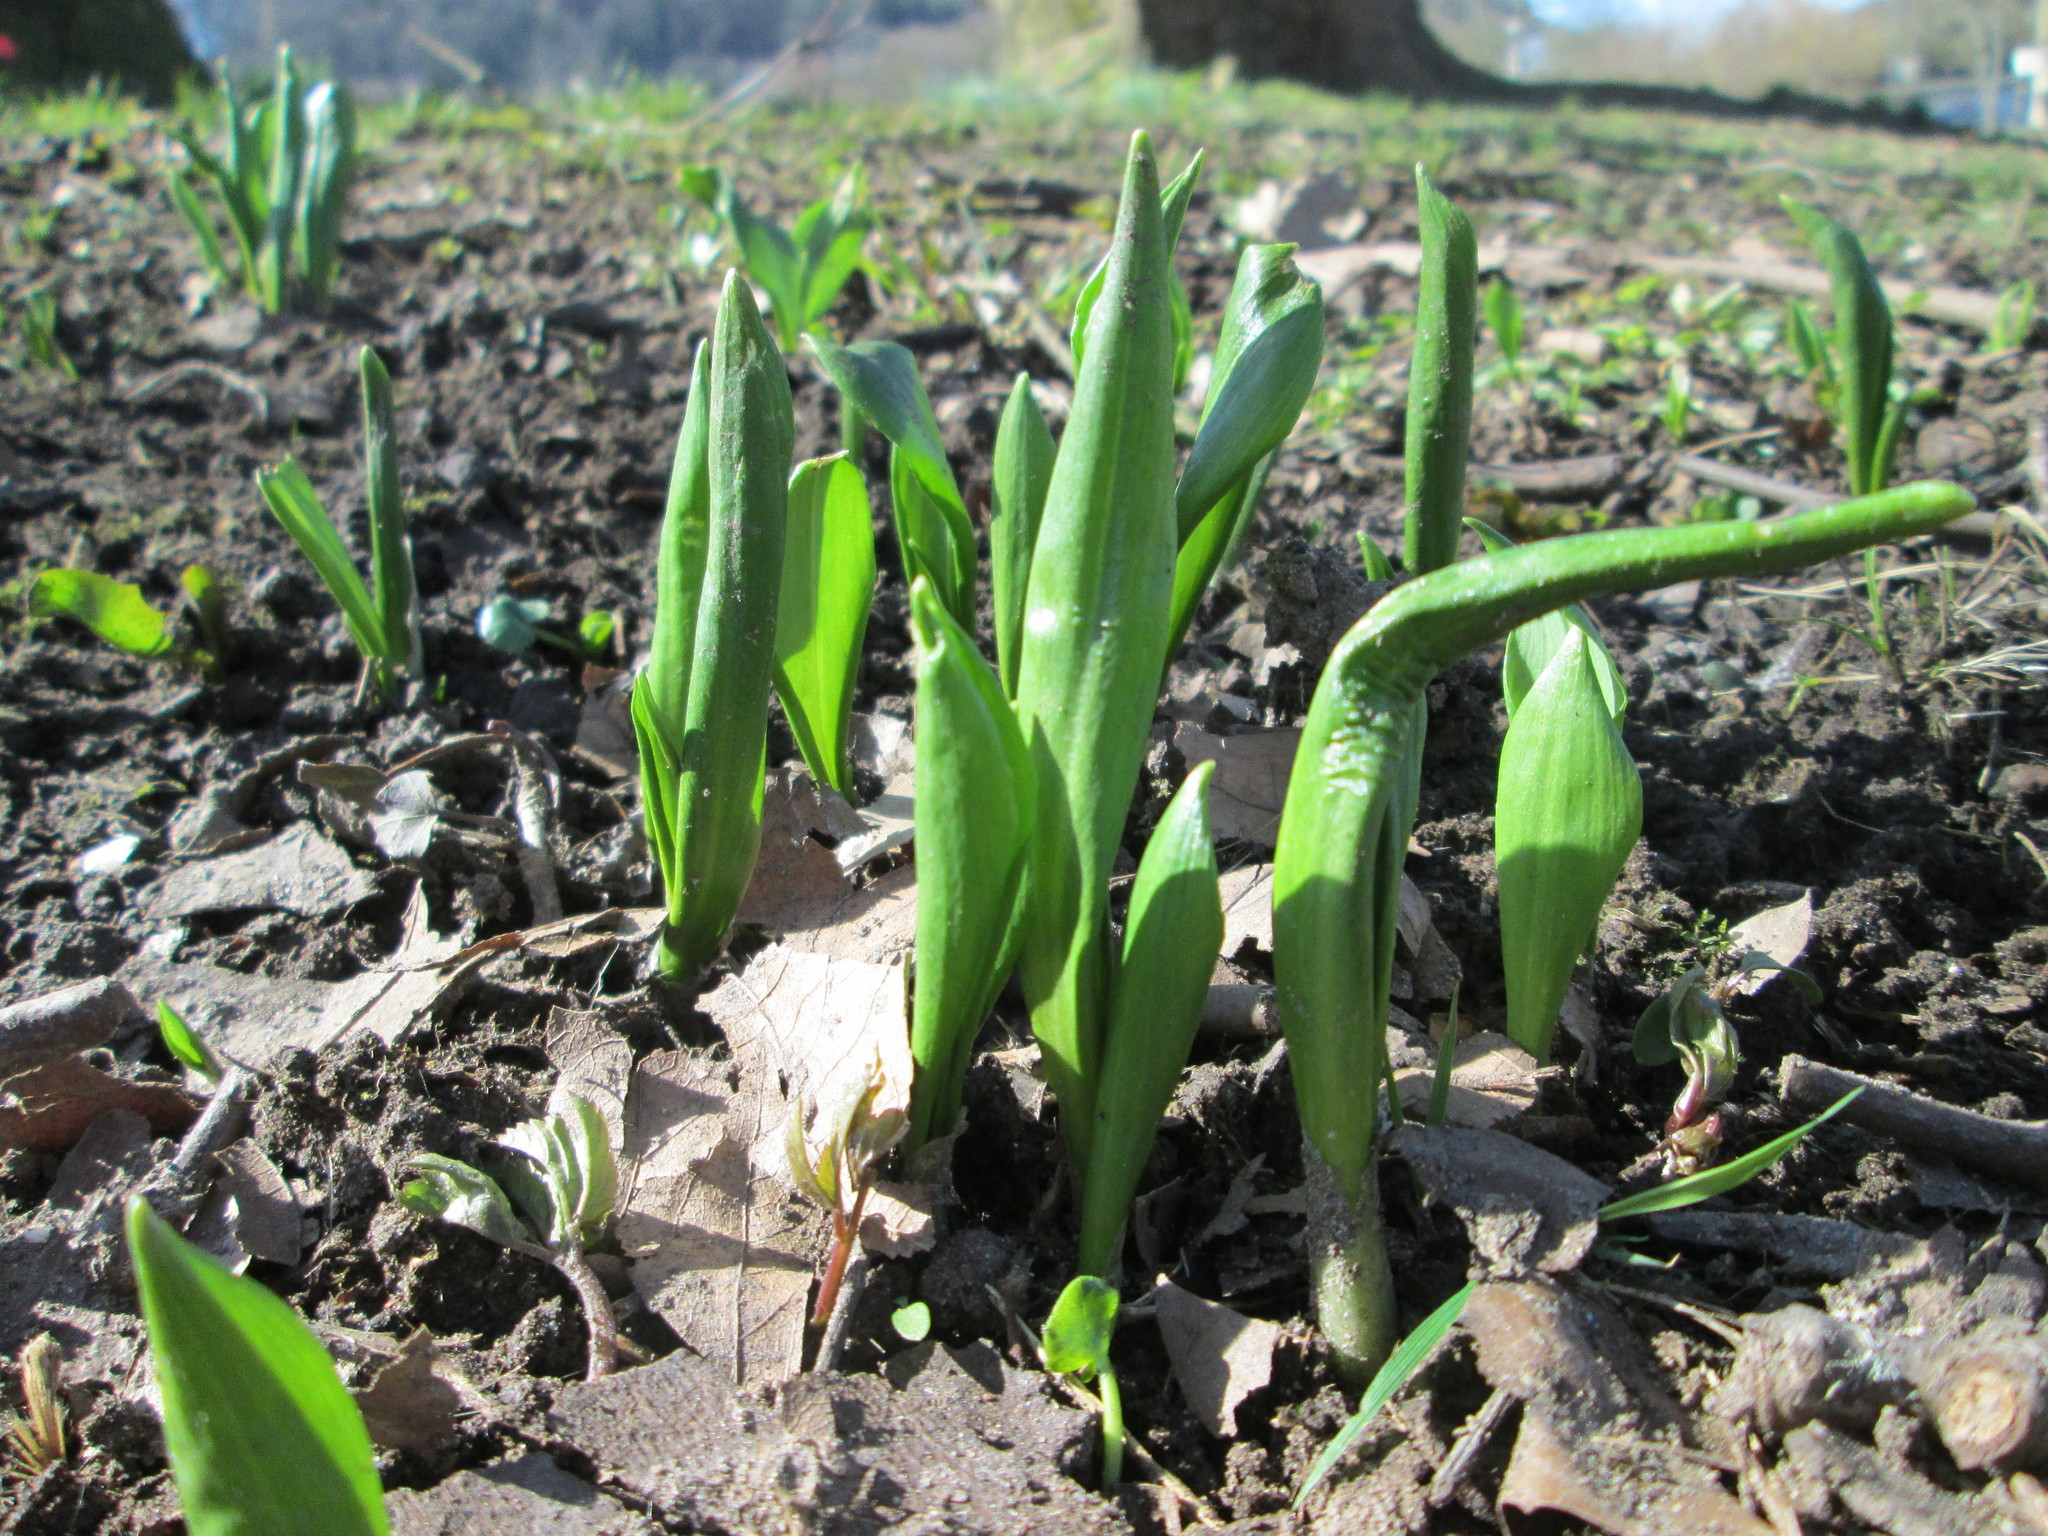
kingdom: Plantae
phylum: Tracheophyta
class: Liliopsida
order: Asparagales
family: Amaryllidaceae
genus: Allium
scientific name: Allium ursinum
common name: Ramsons
